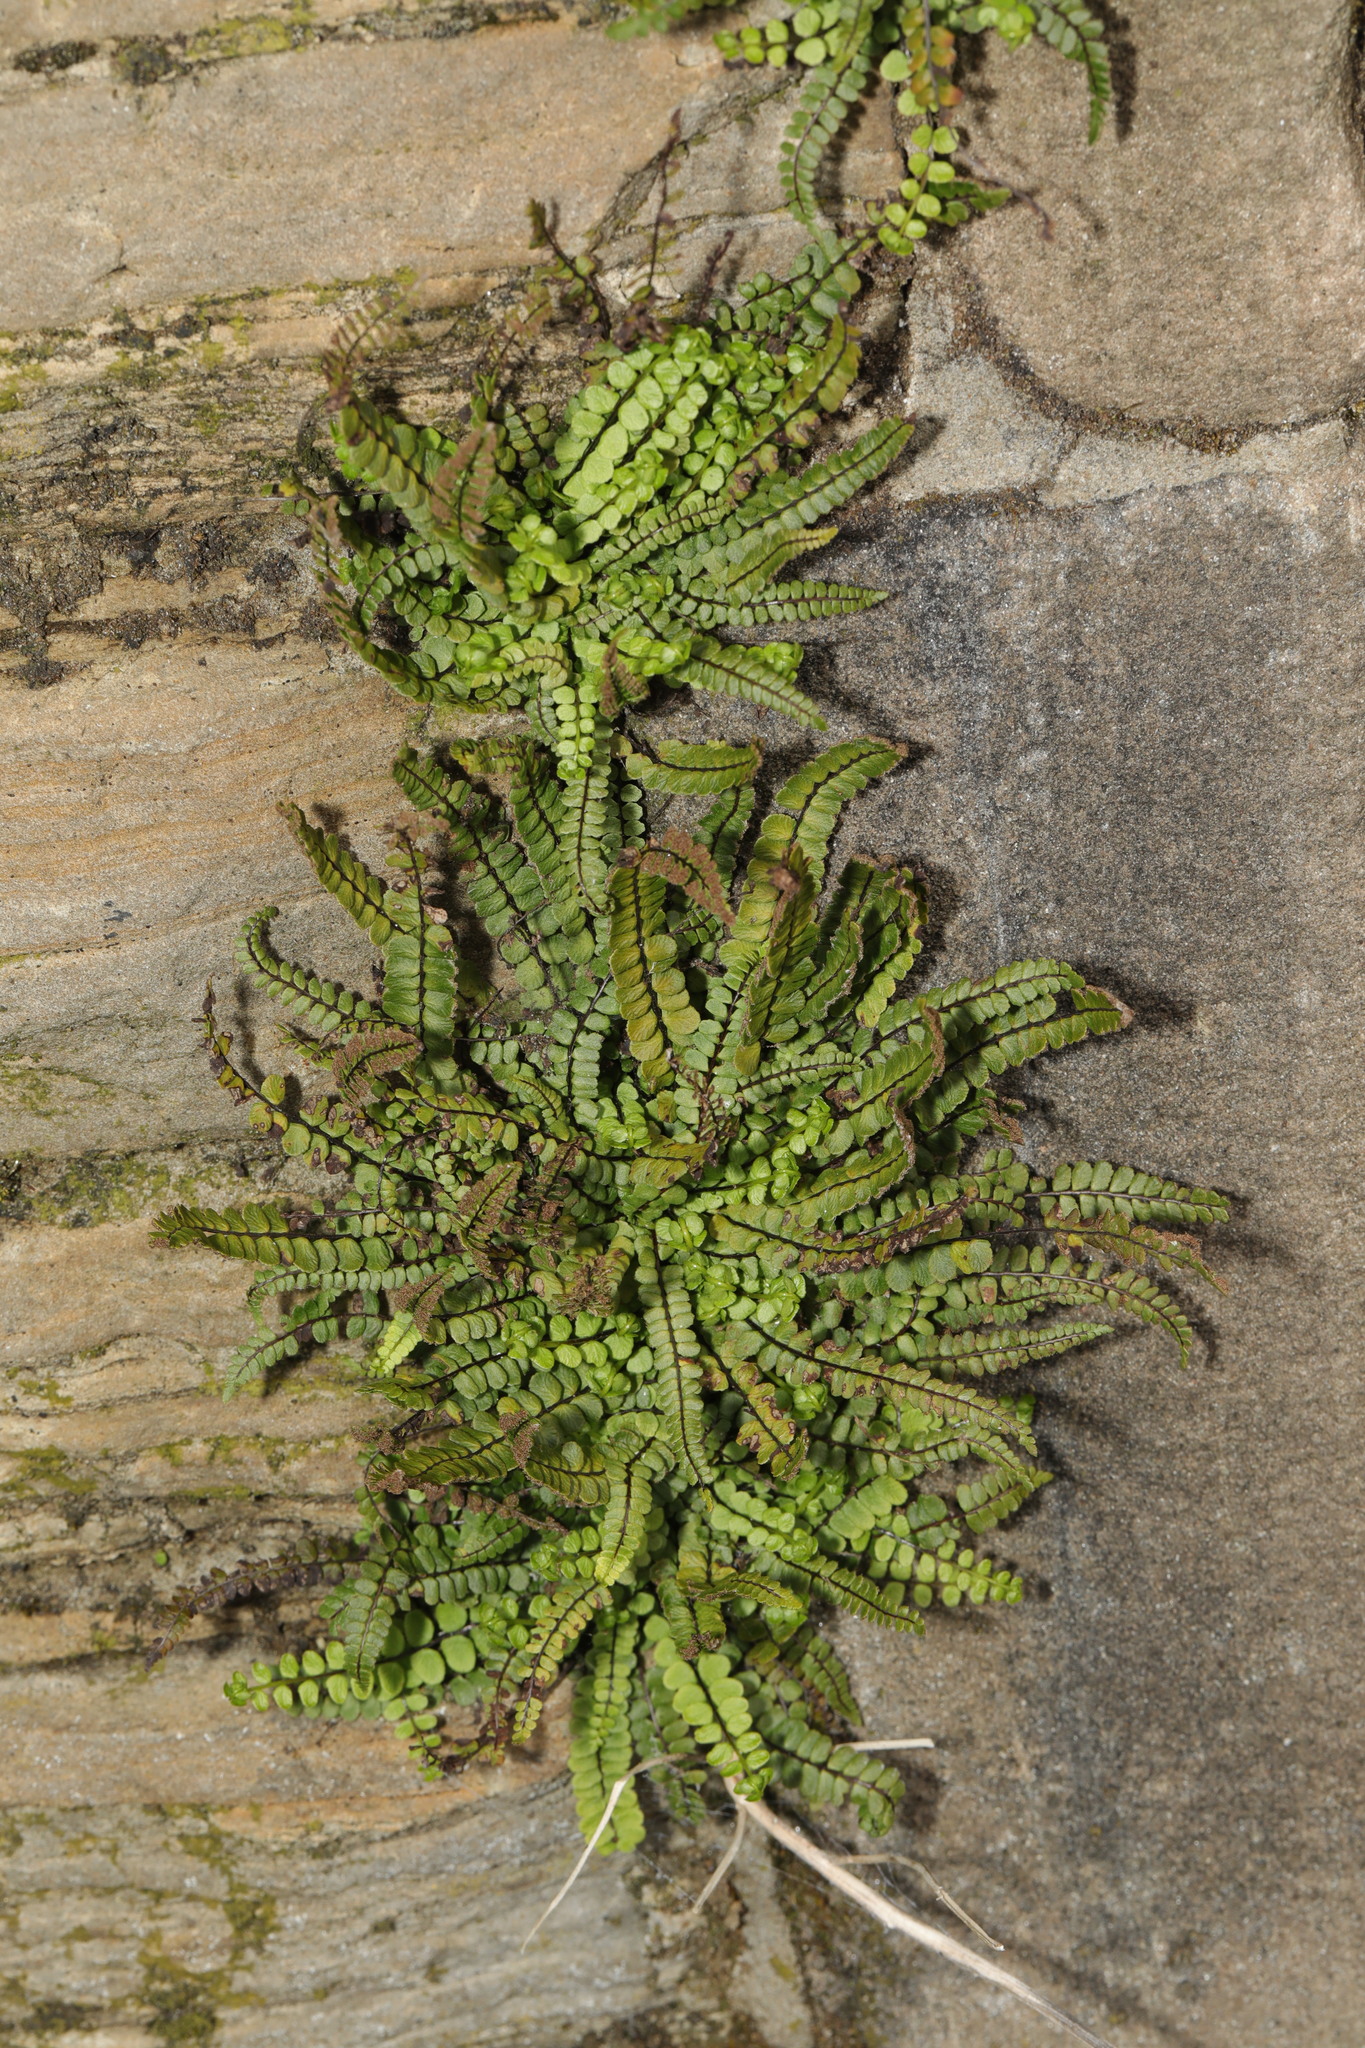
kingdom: Plantae
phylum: Tracheophyta
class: Polypodiopsida
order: Polypodiales
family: Aspleniaceae
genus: Asplenium
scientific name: Asplenium trichomanes
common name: Maidenhair spleenwort
